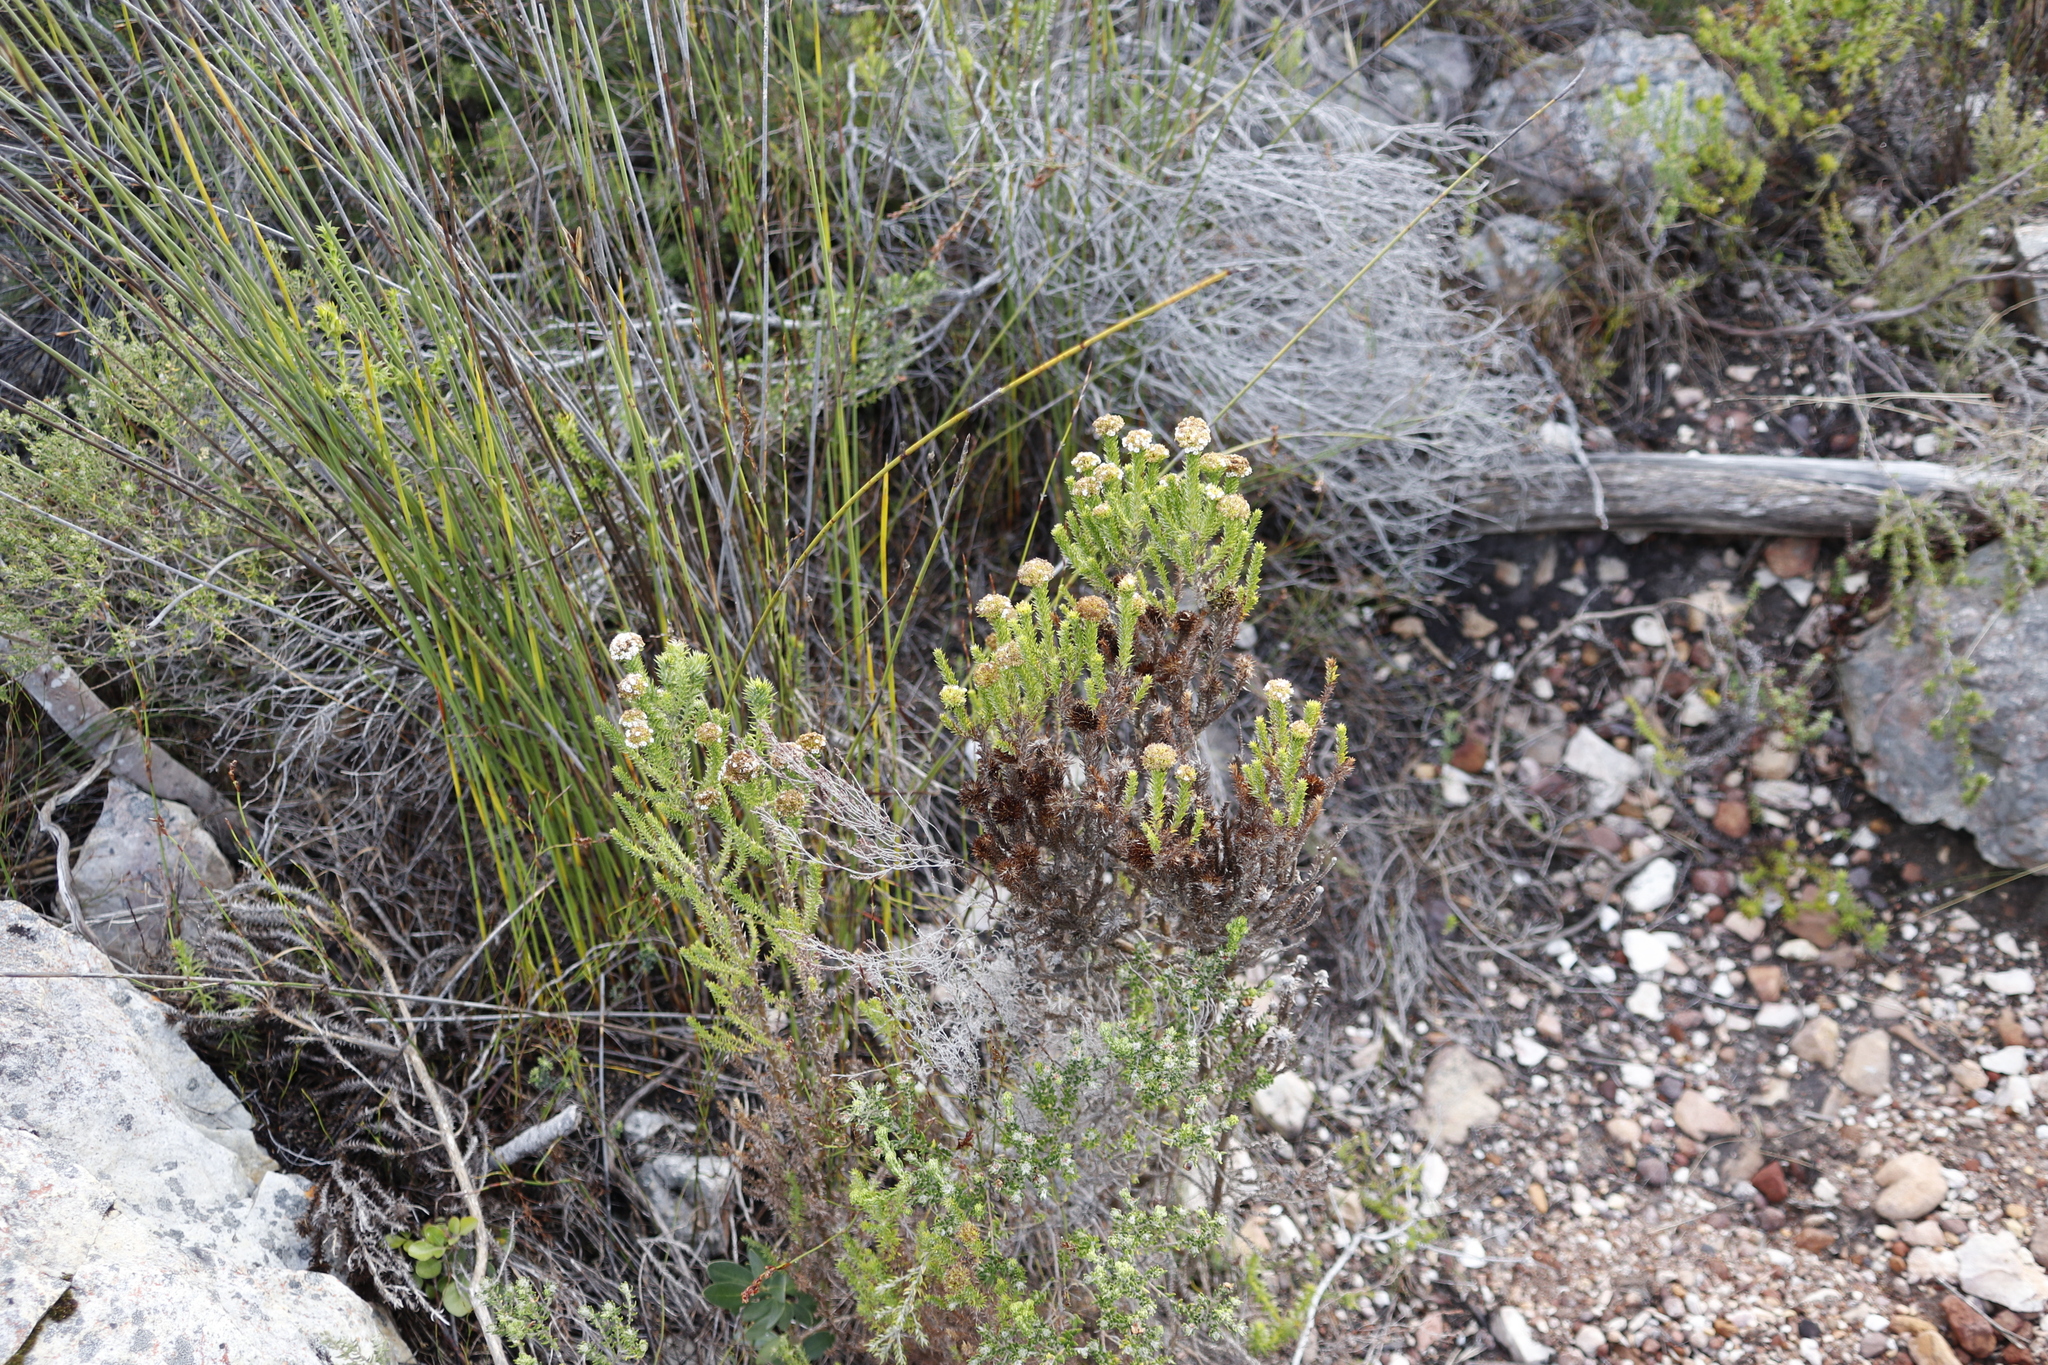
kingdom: Plantae
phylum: Tracheophyta
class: Magnoliopsida
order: Asterales
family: Asteraceae
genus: Stoebe
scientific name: Stoebe aethiopica
